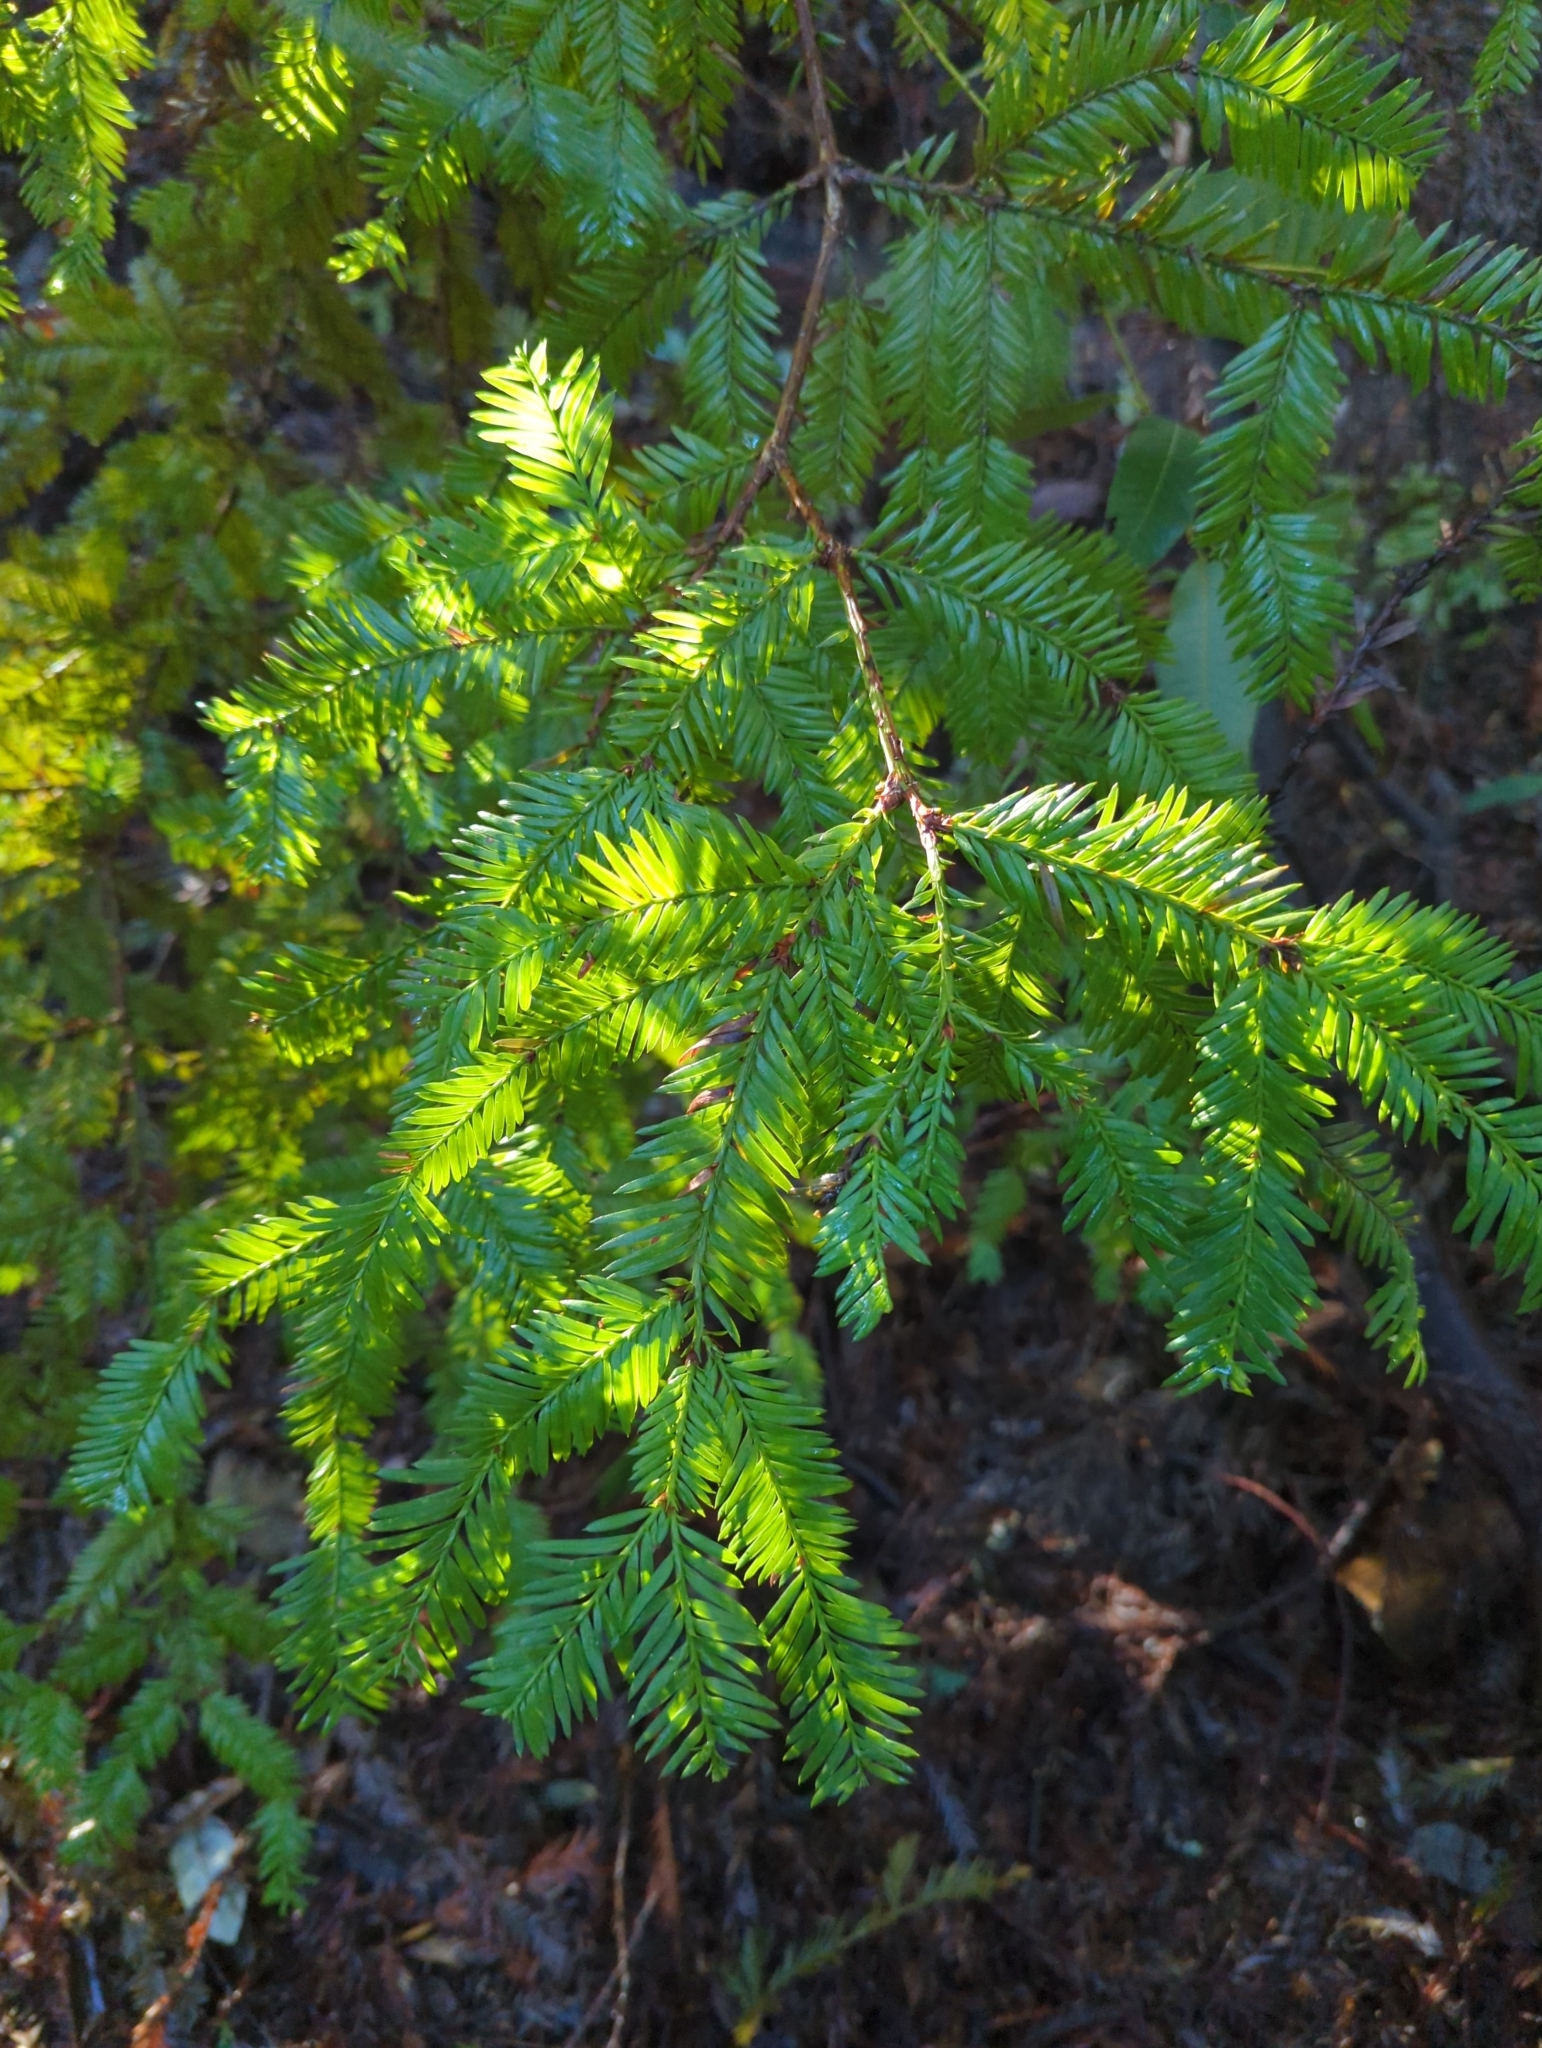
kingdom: Plantae
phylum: Tracheophyta
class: Pinopsida
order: Pinales
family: Cupressaceae
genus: Sequoia
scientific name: Sequoia sempervirens
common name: Coast redwood
